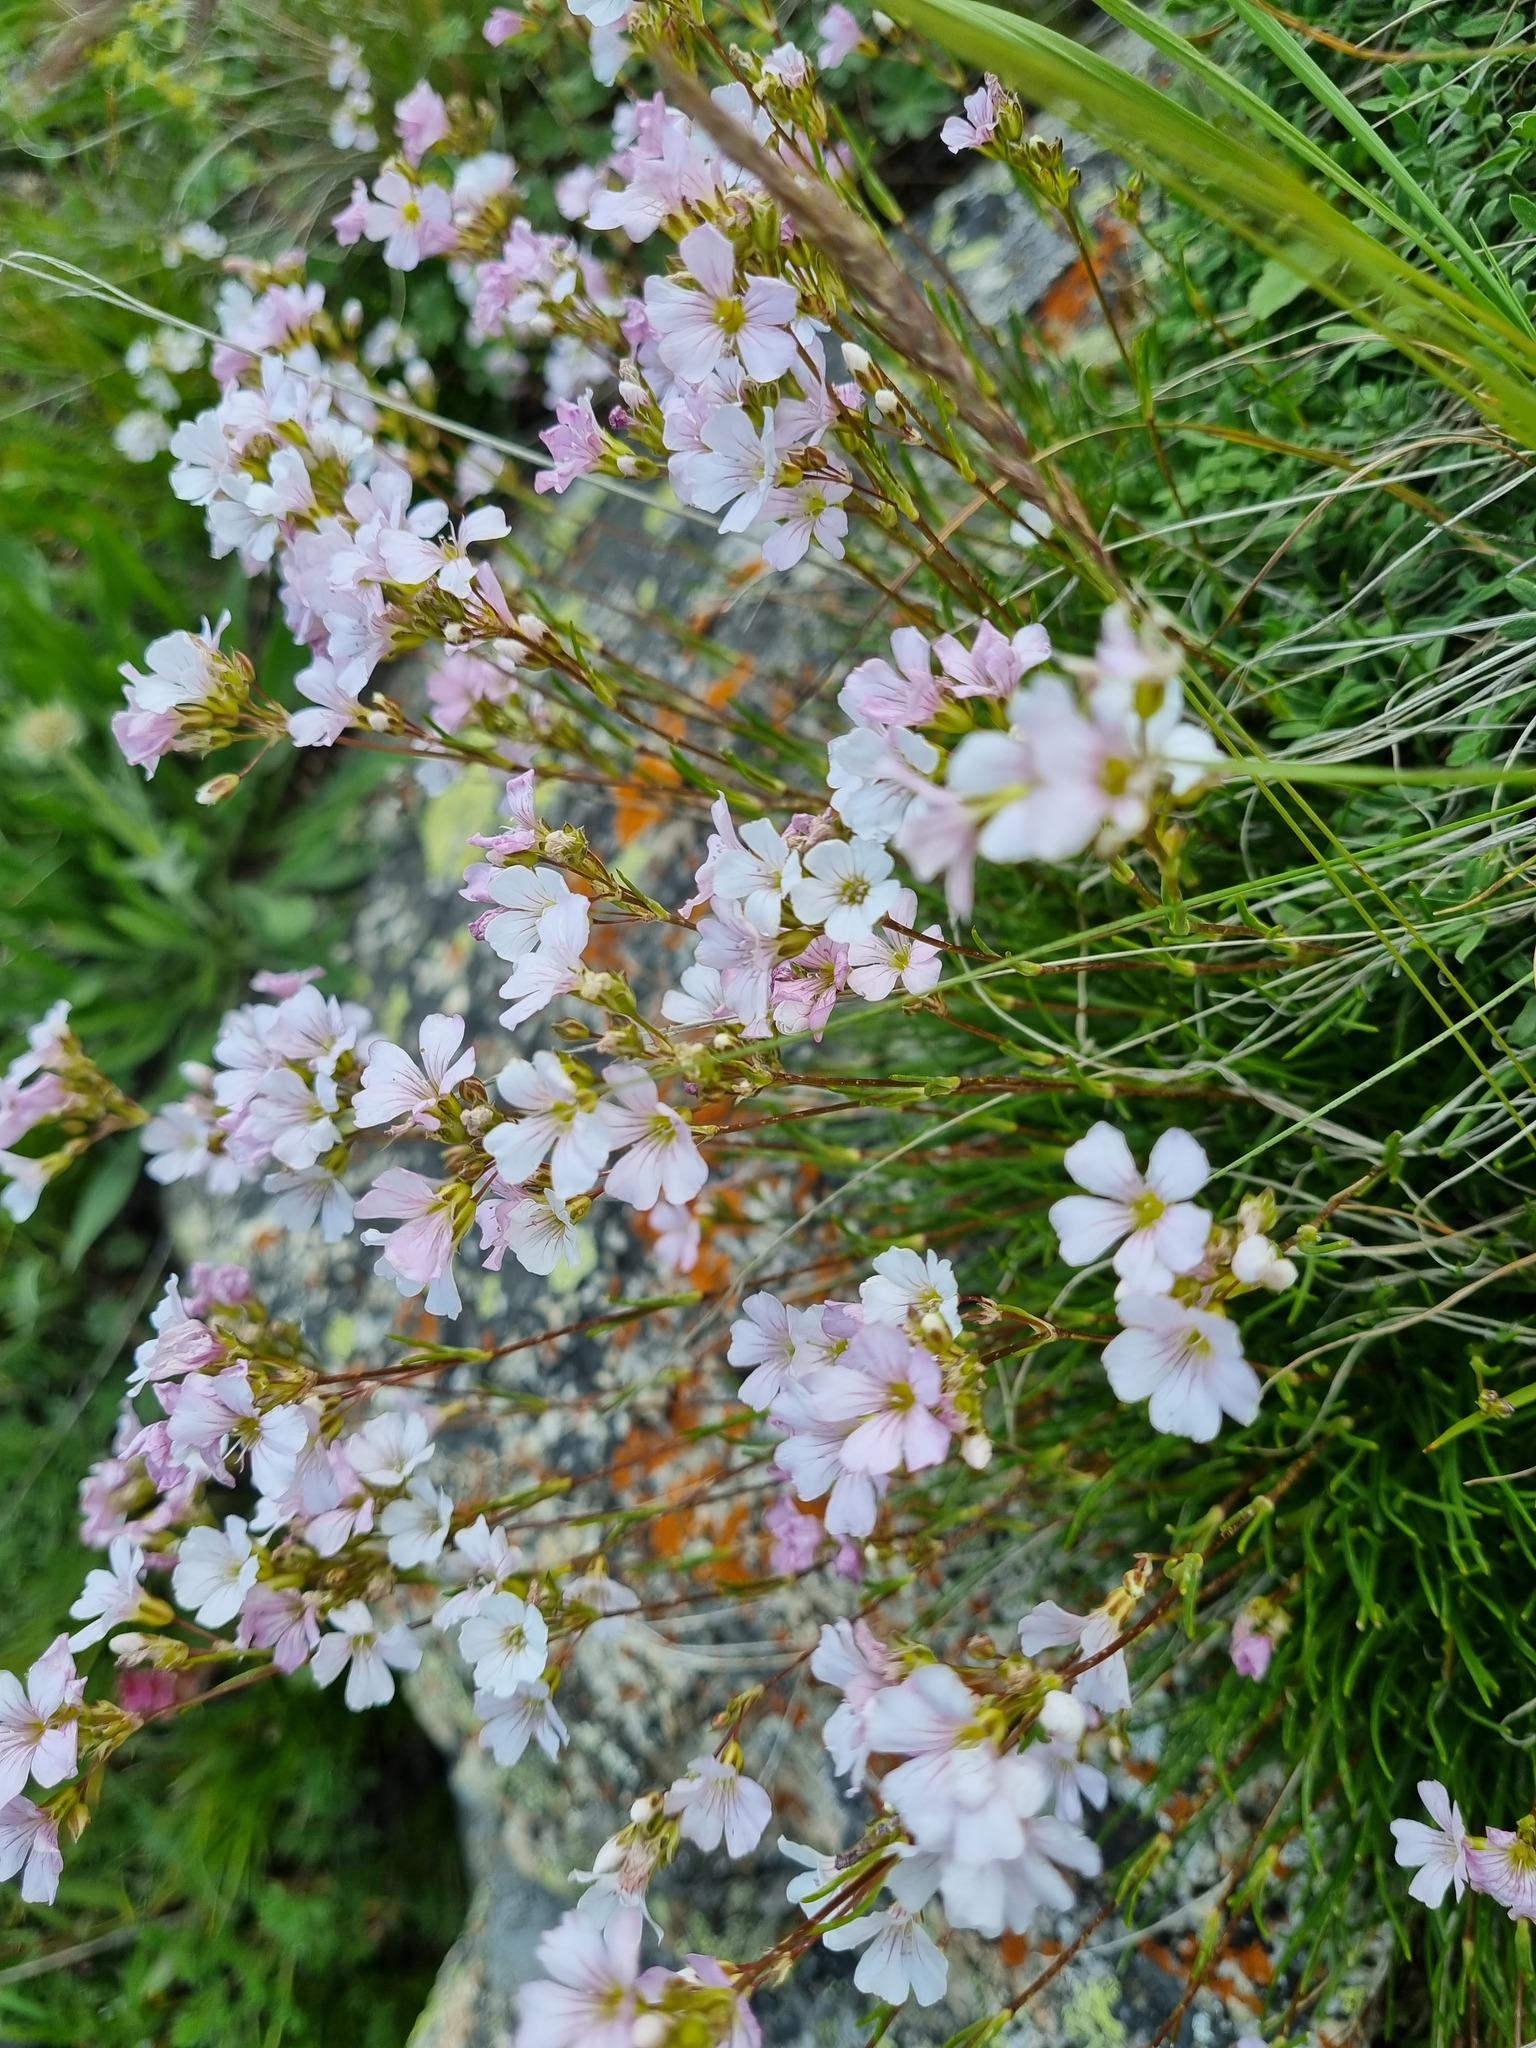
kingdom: Plantae
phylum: Tracheophyta
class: Magnoliopsida
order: Caryophyllales
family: Caryophyllaceae
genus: Gypsophila
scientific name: Gypsophila tenuifolia
